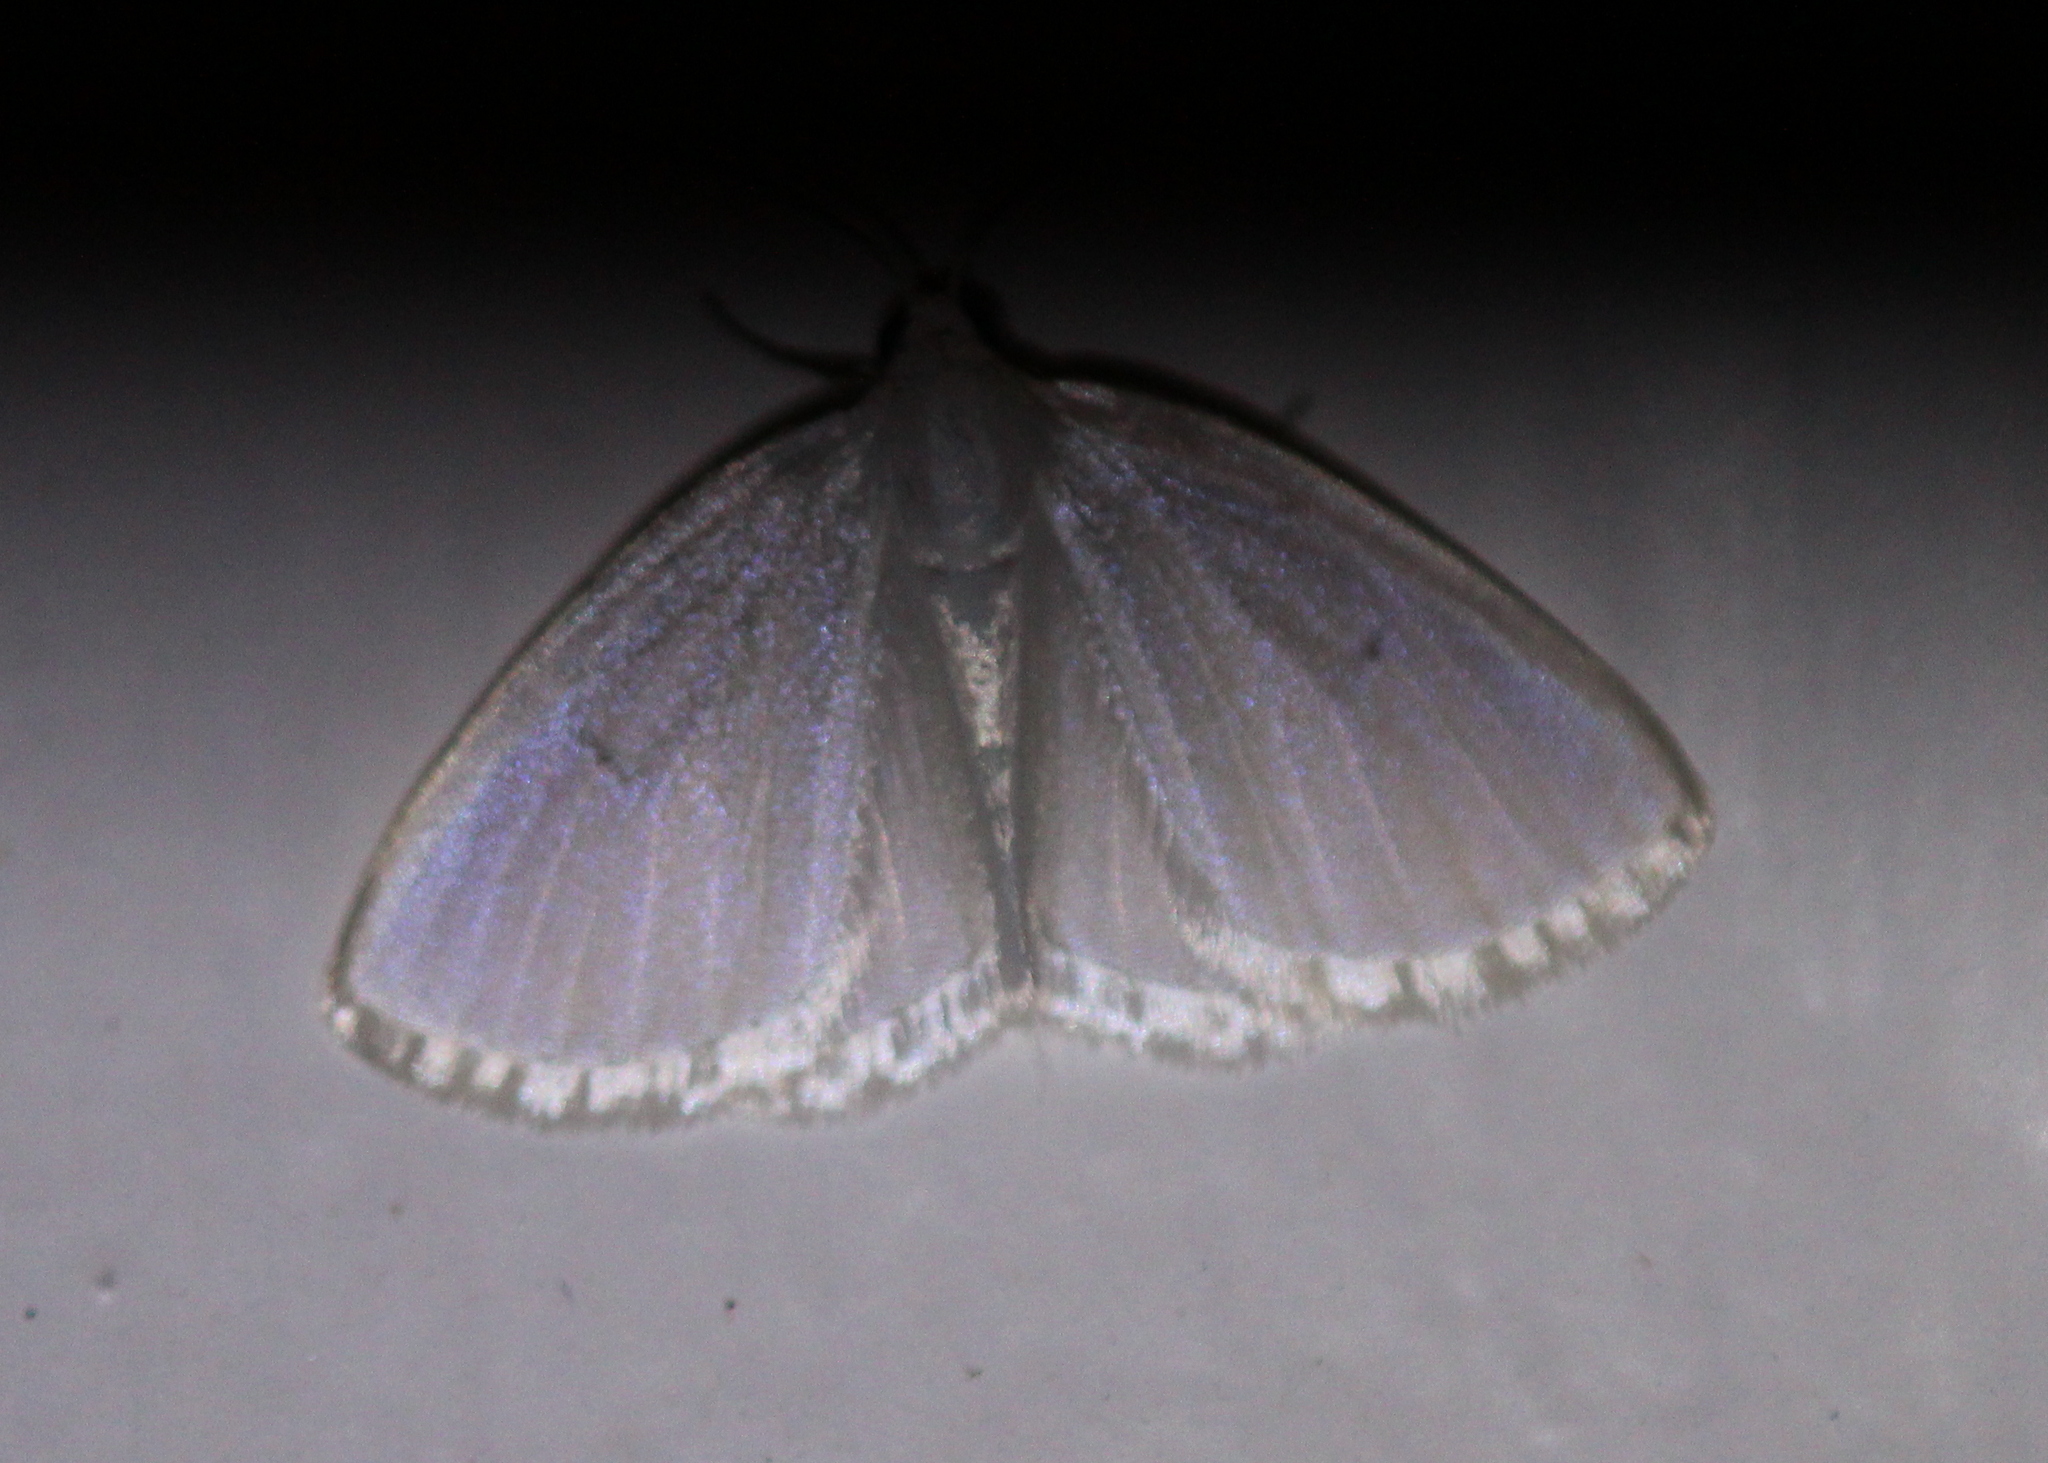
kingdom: Animalia
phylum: Arthropoda
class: Insecta
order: Lepidoptera
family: Geometridae
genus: Lomographa
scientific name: Lomographa vestaliata
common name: White spring moth
